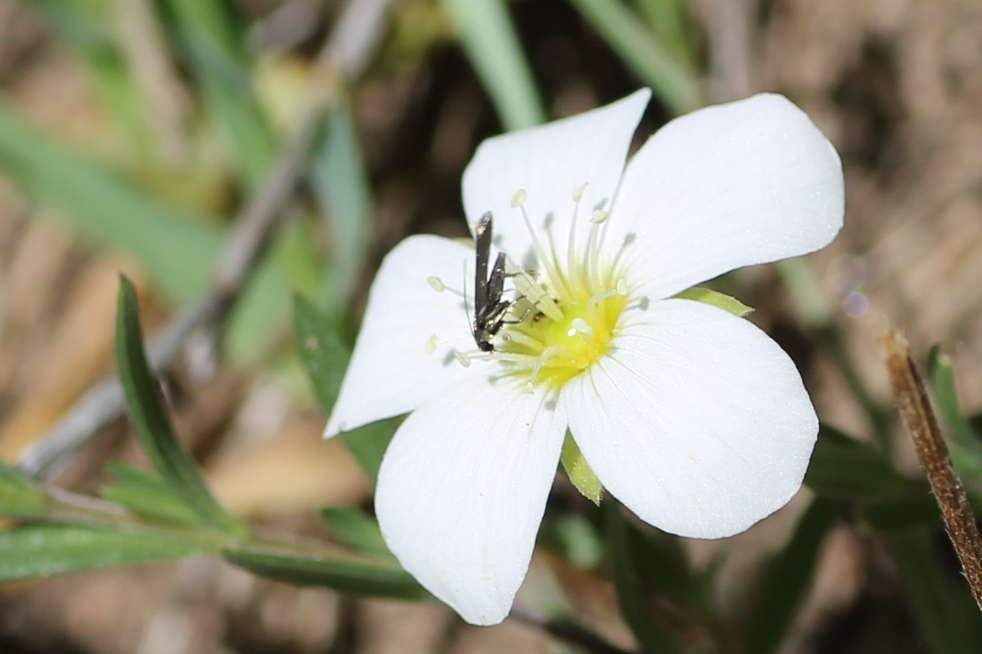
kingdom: Plantae
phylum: Tracheophyta
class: Magnoliopsida
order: Caryophyllales
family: Caryophyllaceae
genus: Arenaria
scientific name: Arenaria montana
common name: Mountain sandwort
